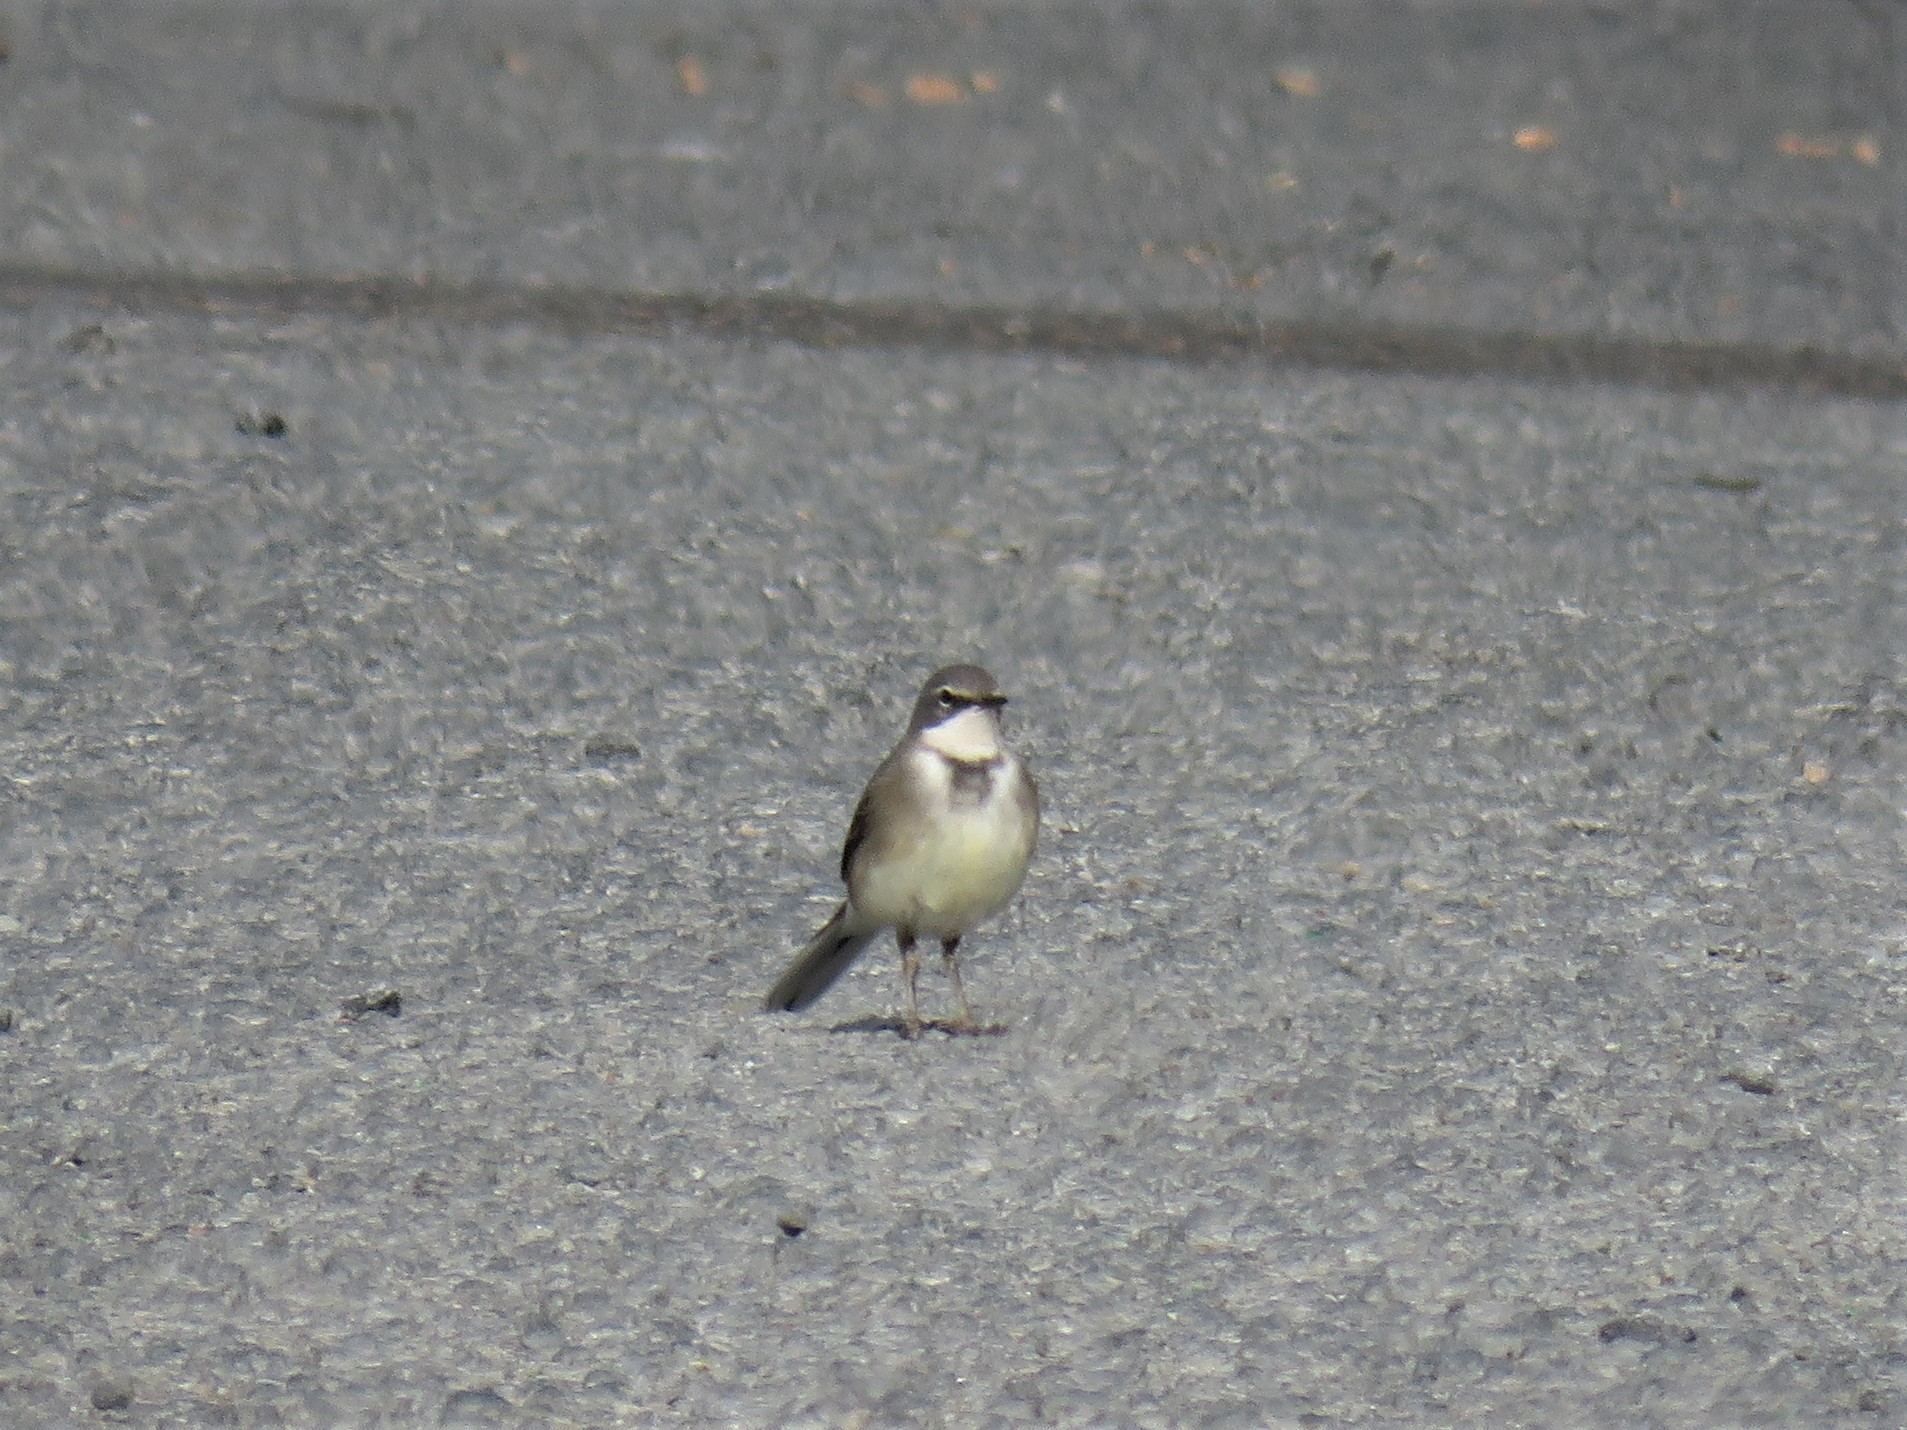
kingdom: Animalia
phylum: Chordata
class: Aves
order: Passeriformes
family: Motacillidae
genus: Motacilla
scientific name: Motacilla capensis
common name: Cape wagtail
